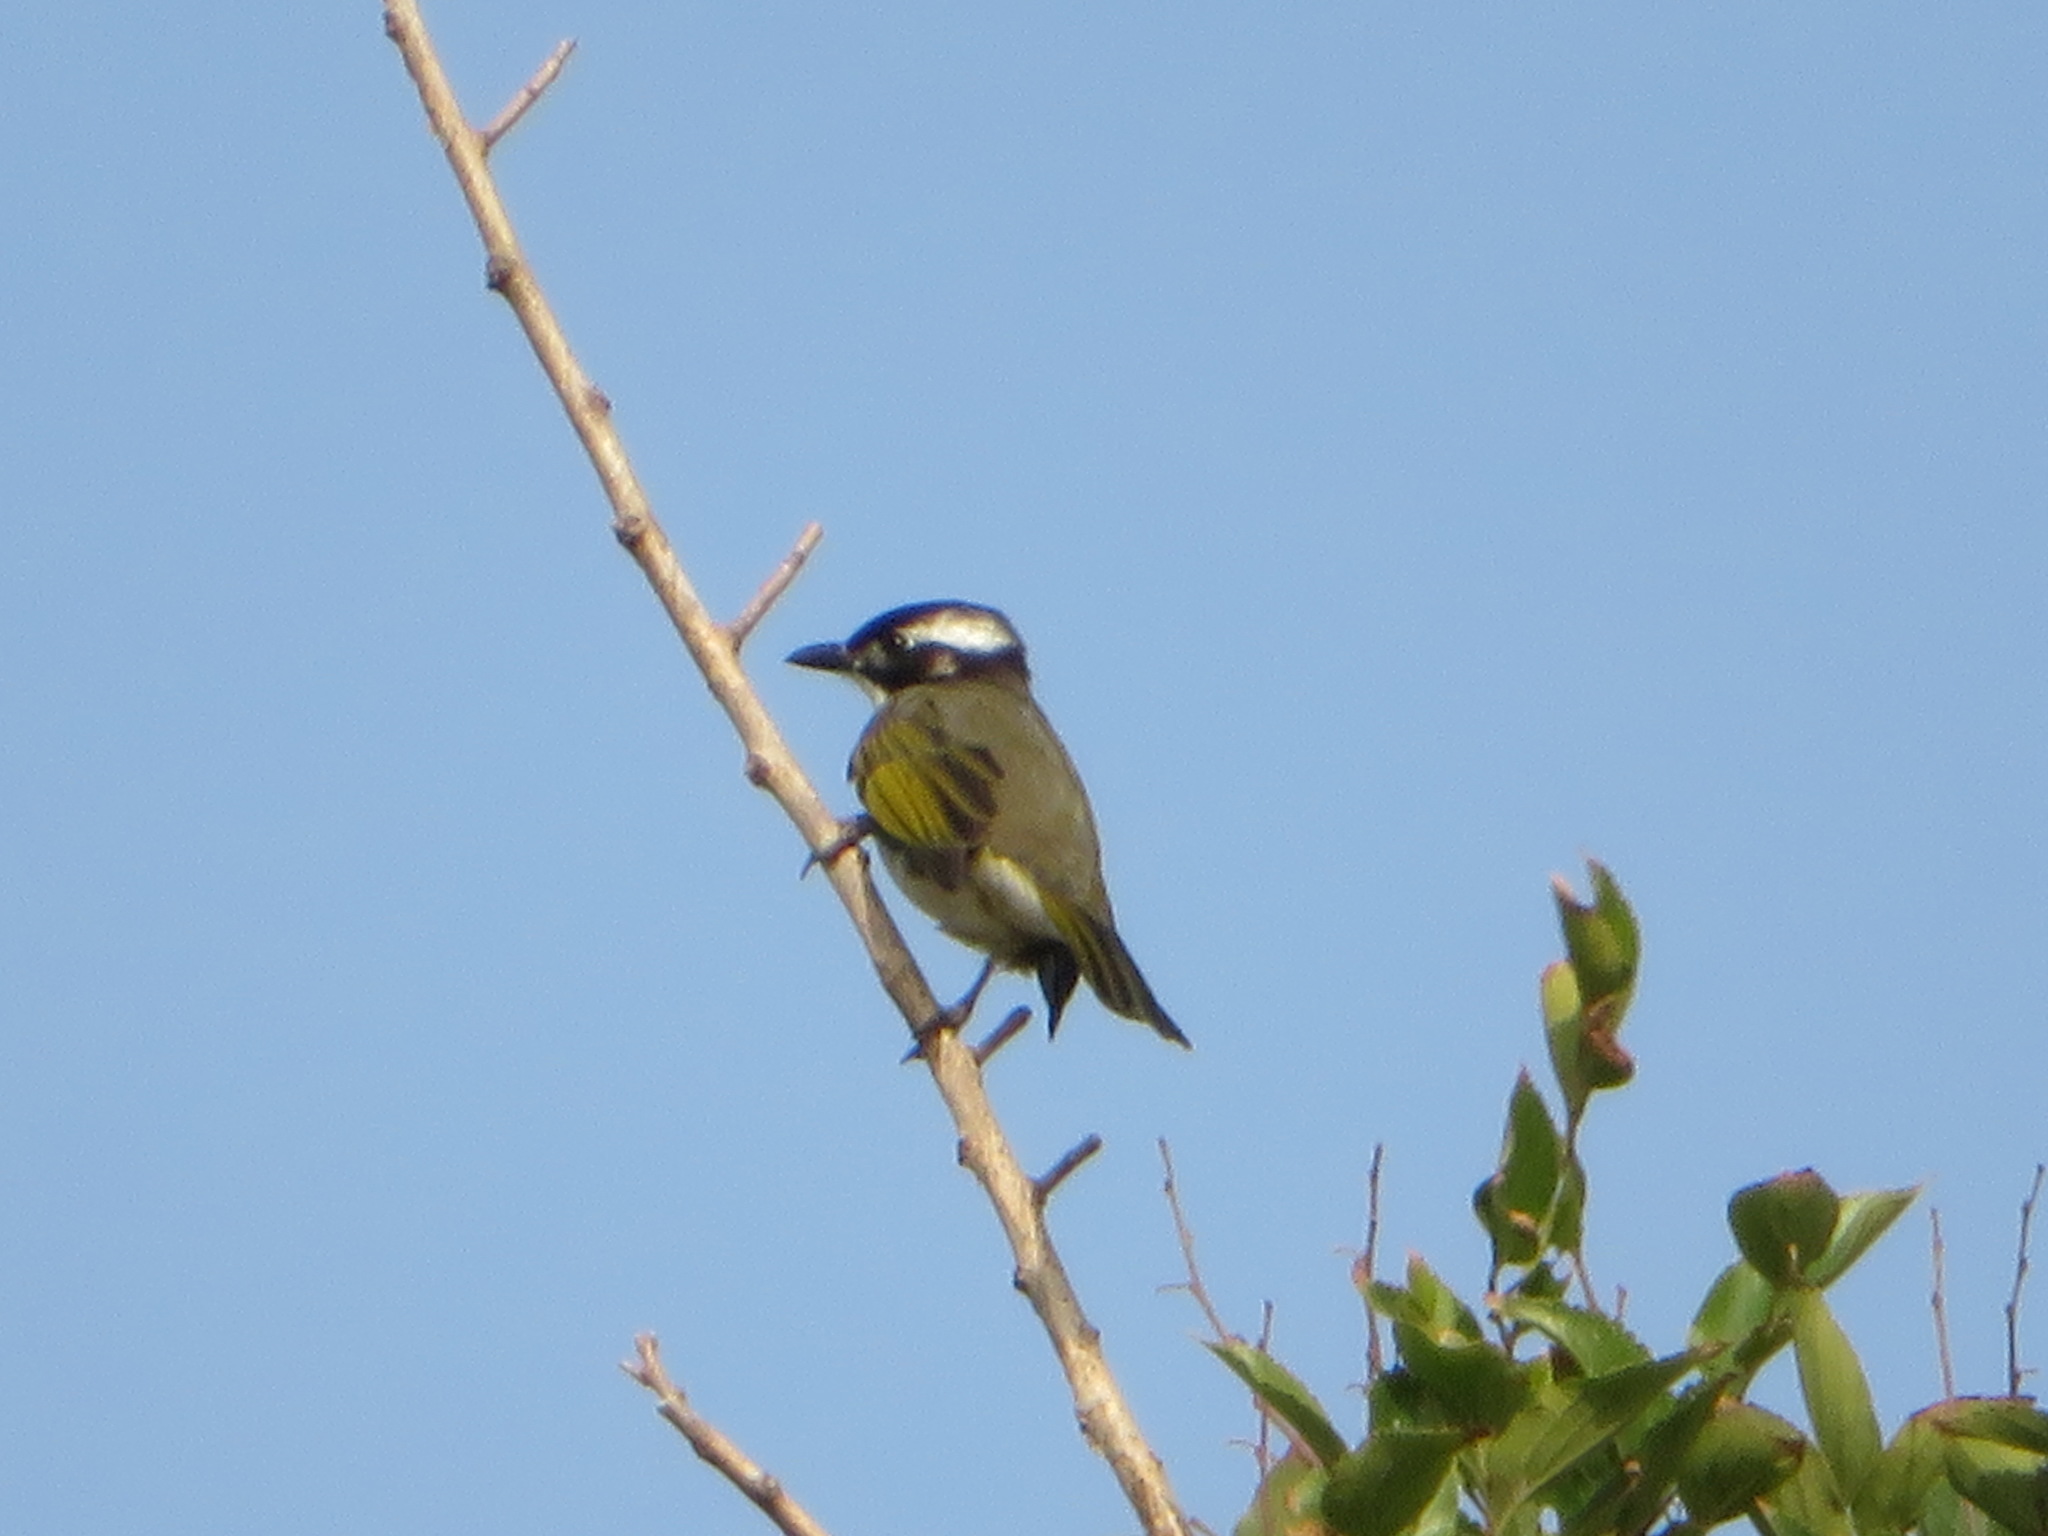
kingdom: Animalia
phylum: Chordata
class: Aves
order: Passeriformes
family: Pycnonotidae
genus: Pycnonotus
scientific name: Pycnonotus sinensis
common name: Light-vented bulbul
